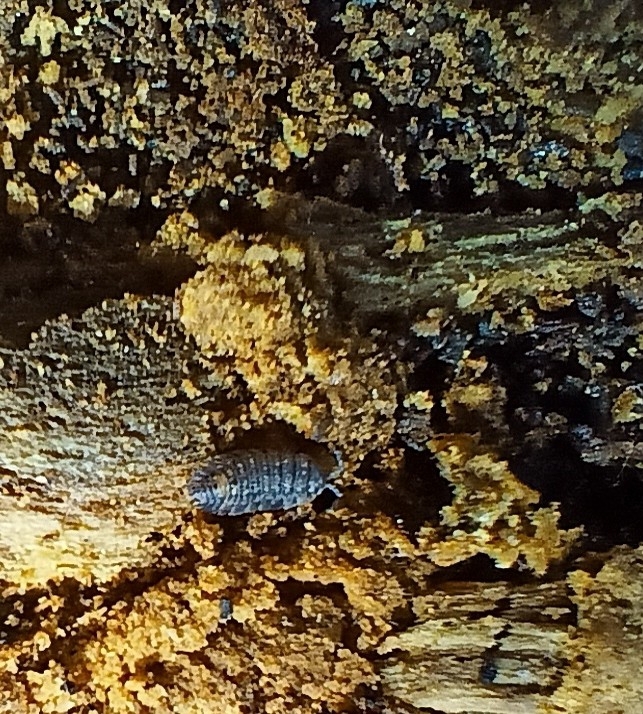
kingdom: Animalia
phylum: Arthropoda
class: Malacostraca
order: Isopoda
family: Oniscidae
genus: Oniscus
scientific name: Oniscus asellus
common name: Common shiny woodlouse
